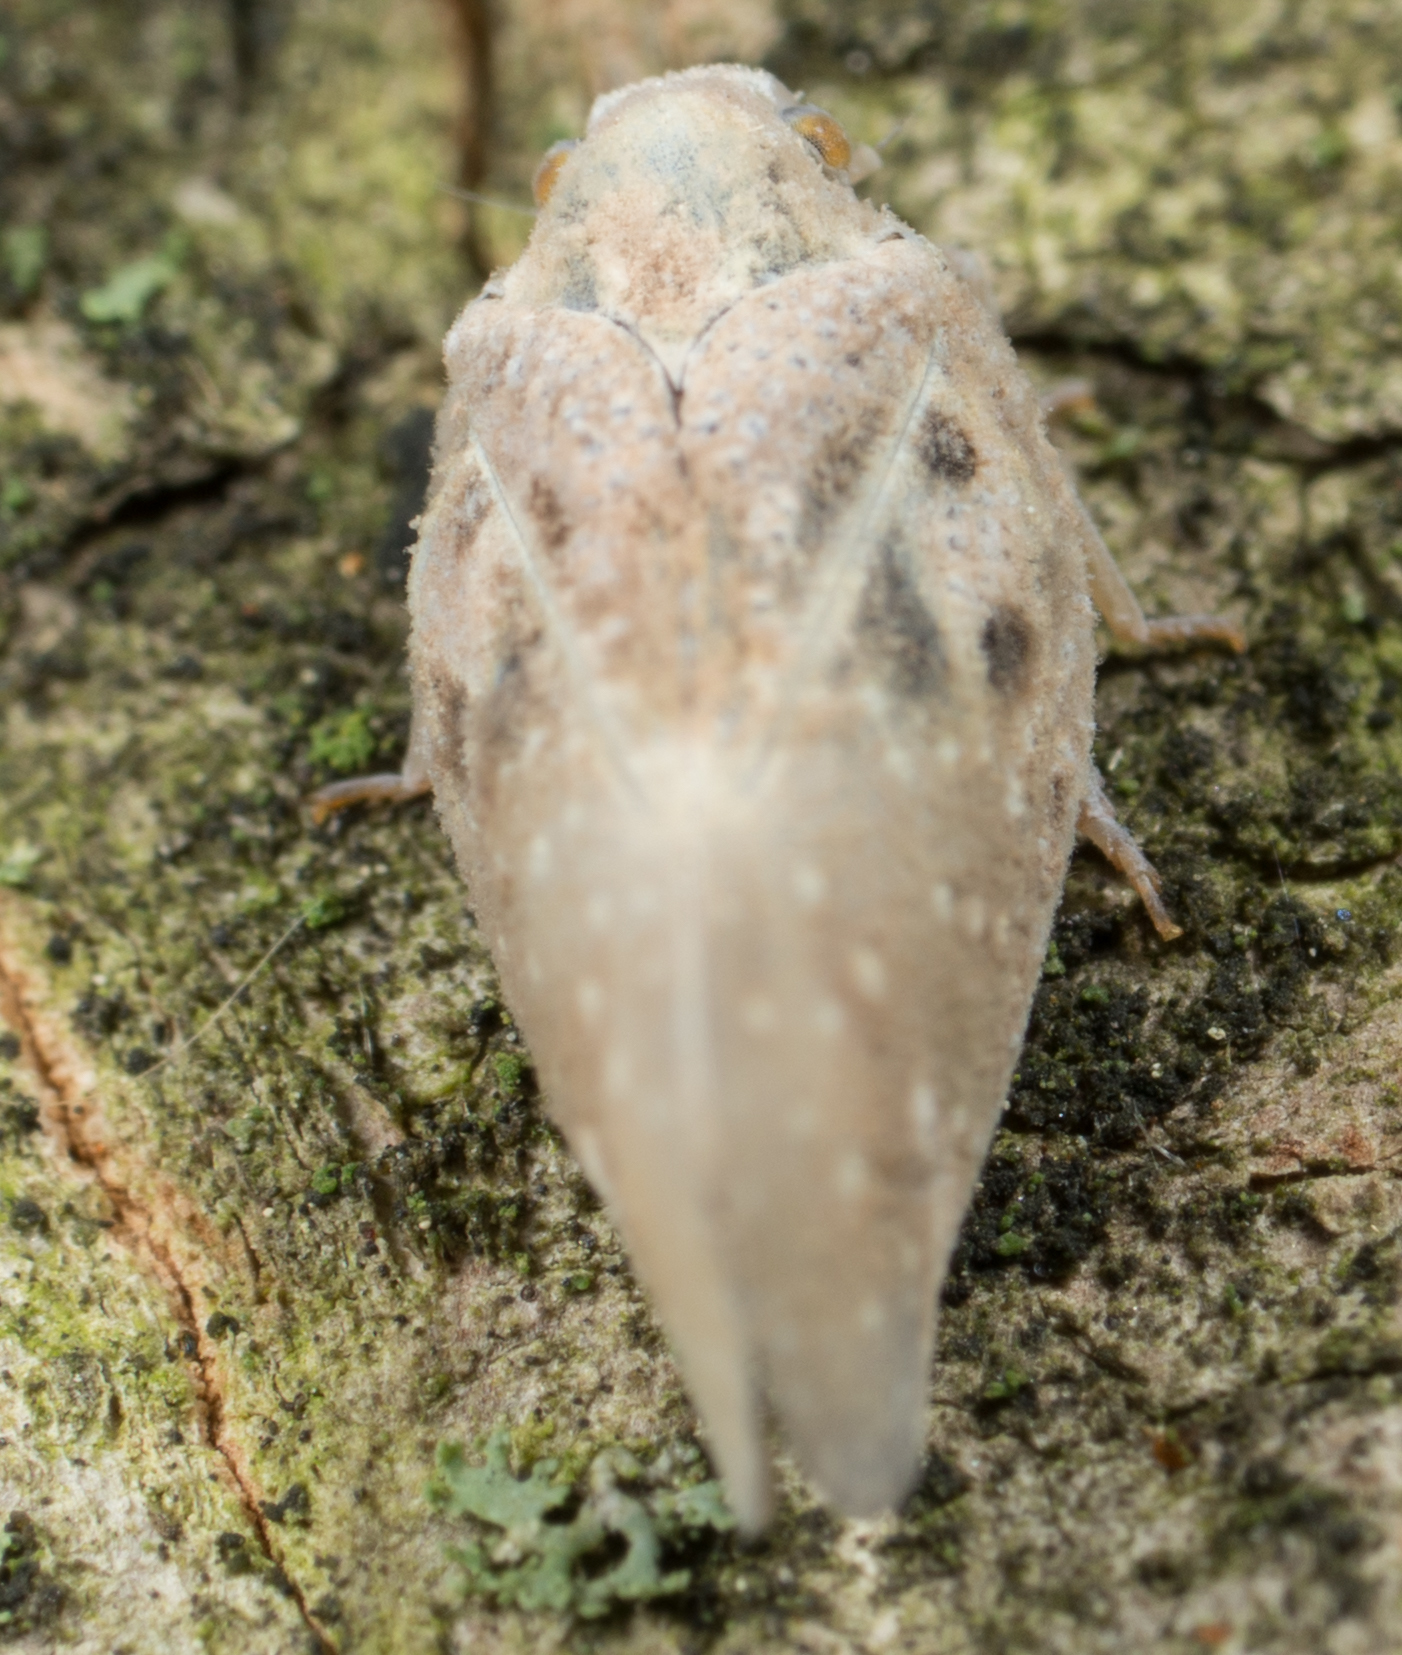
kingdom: Animalia
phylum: Arthropoda
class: Insecta
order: Hemiptera
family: Flatidae
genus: Metcalfa
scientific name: Metcalfa pruinosa
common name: Citrus flatid planthopper
